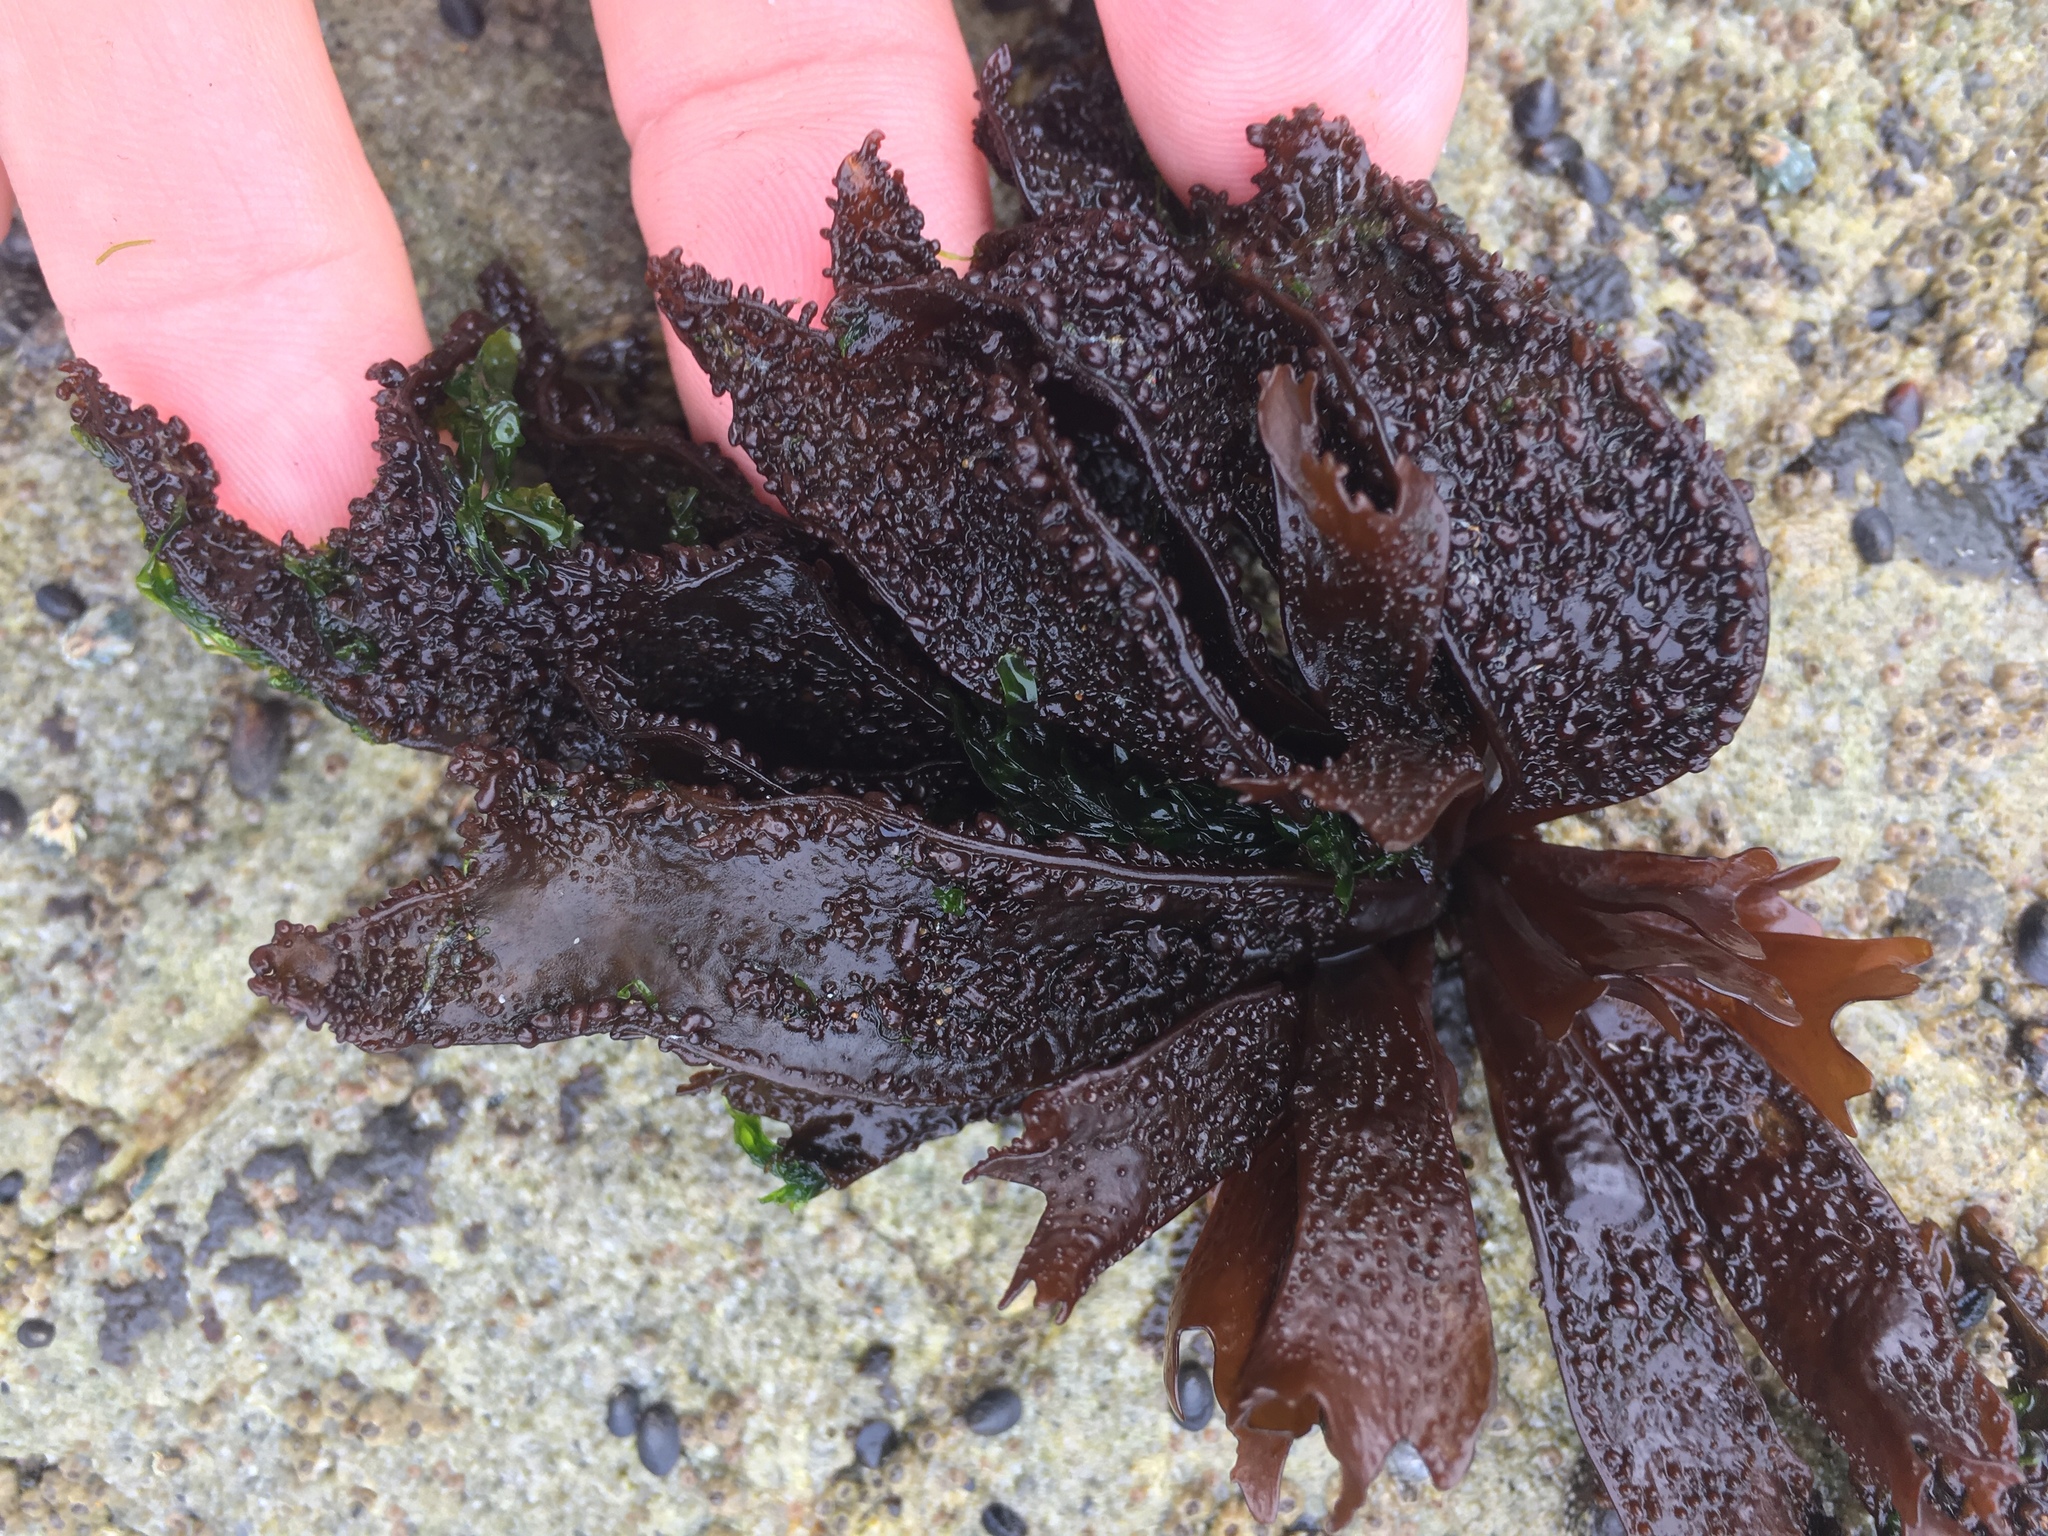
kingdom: Plantae
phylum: Rhodophyta
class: Florideophyceae
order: Gigartinales
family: Phyllophoraceae
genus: Mastocarpus
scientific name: Mastocarpus papillatus
